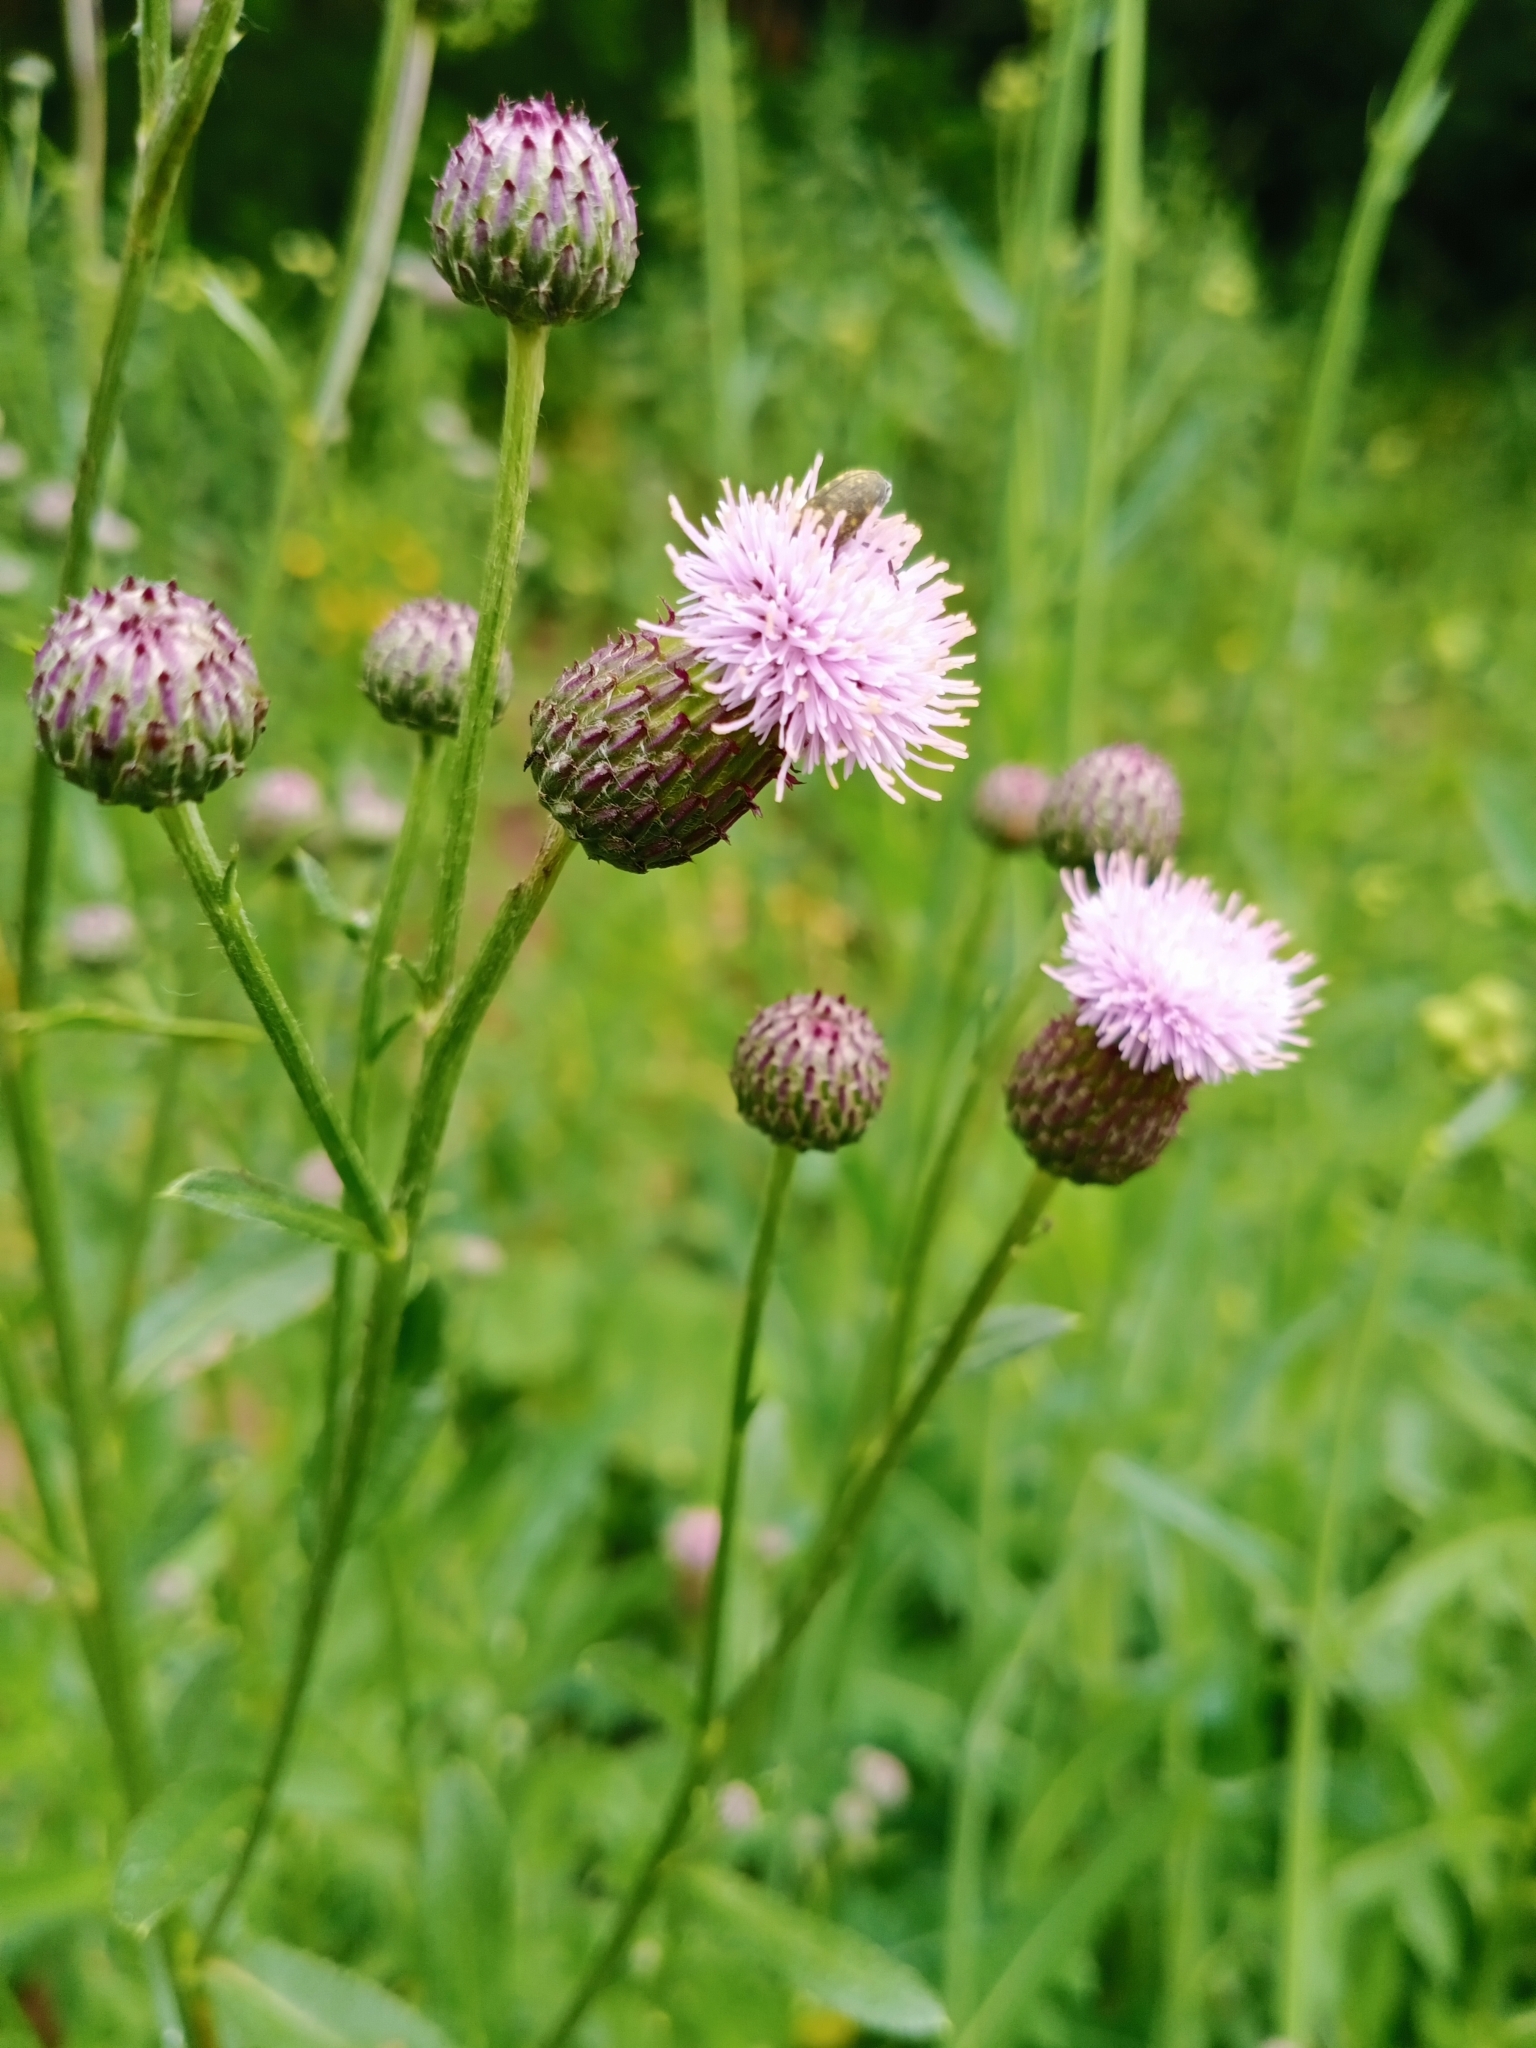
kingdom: Plantae
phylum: Tracheophyta
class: Magnoliopsida
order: Asterales
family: Asteraceae
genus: Cirsium
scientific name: Cirsium arvense
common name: Creeping thistle
